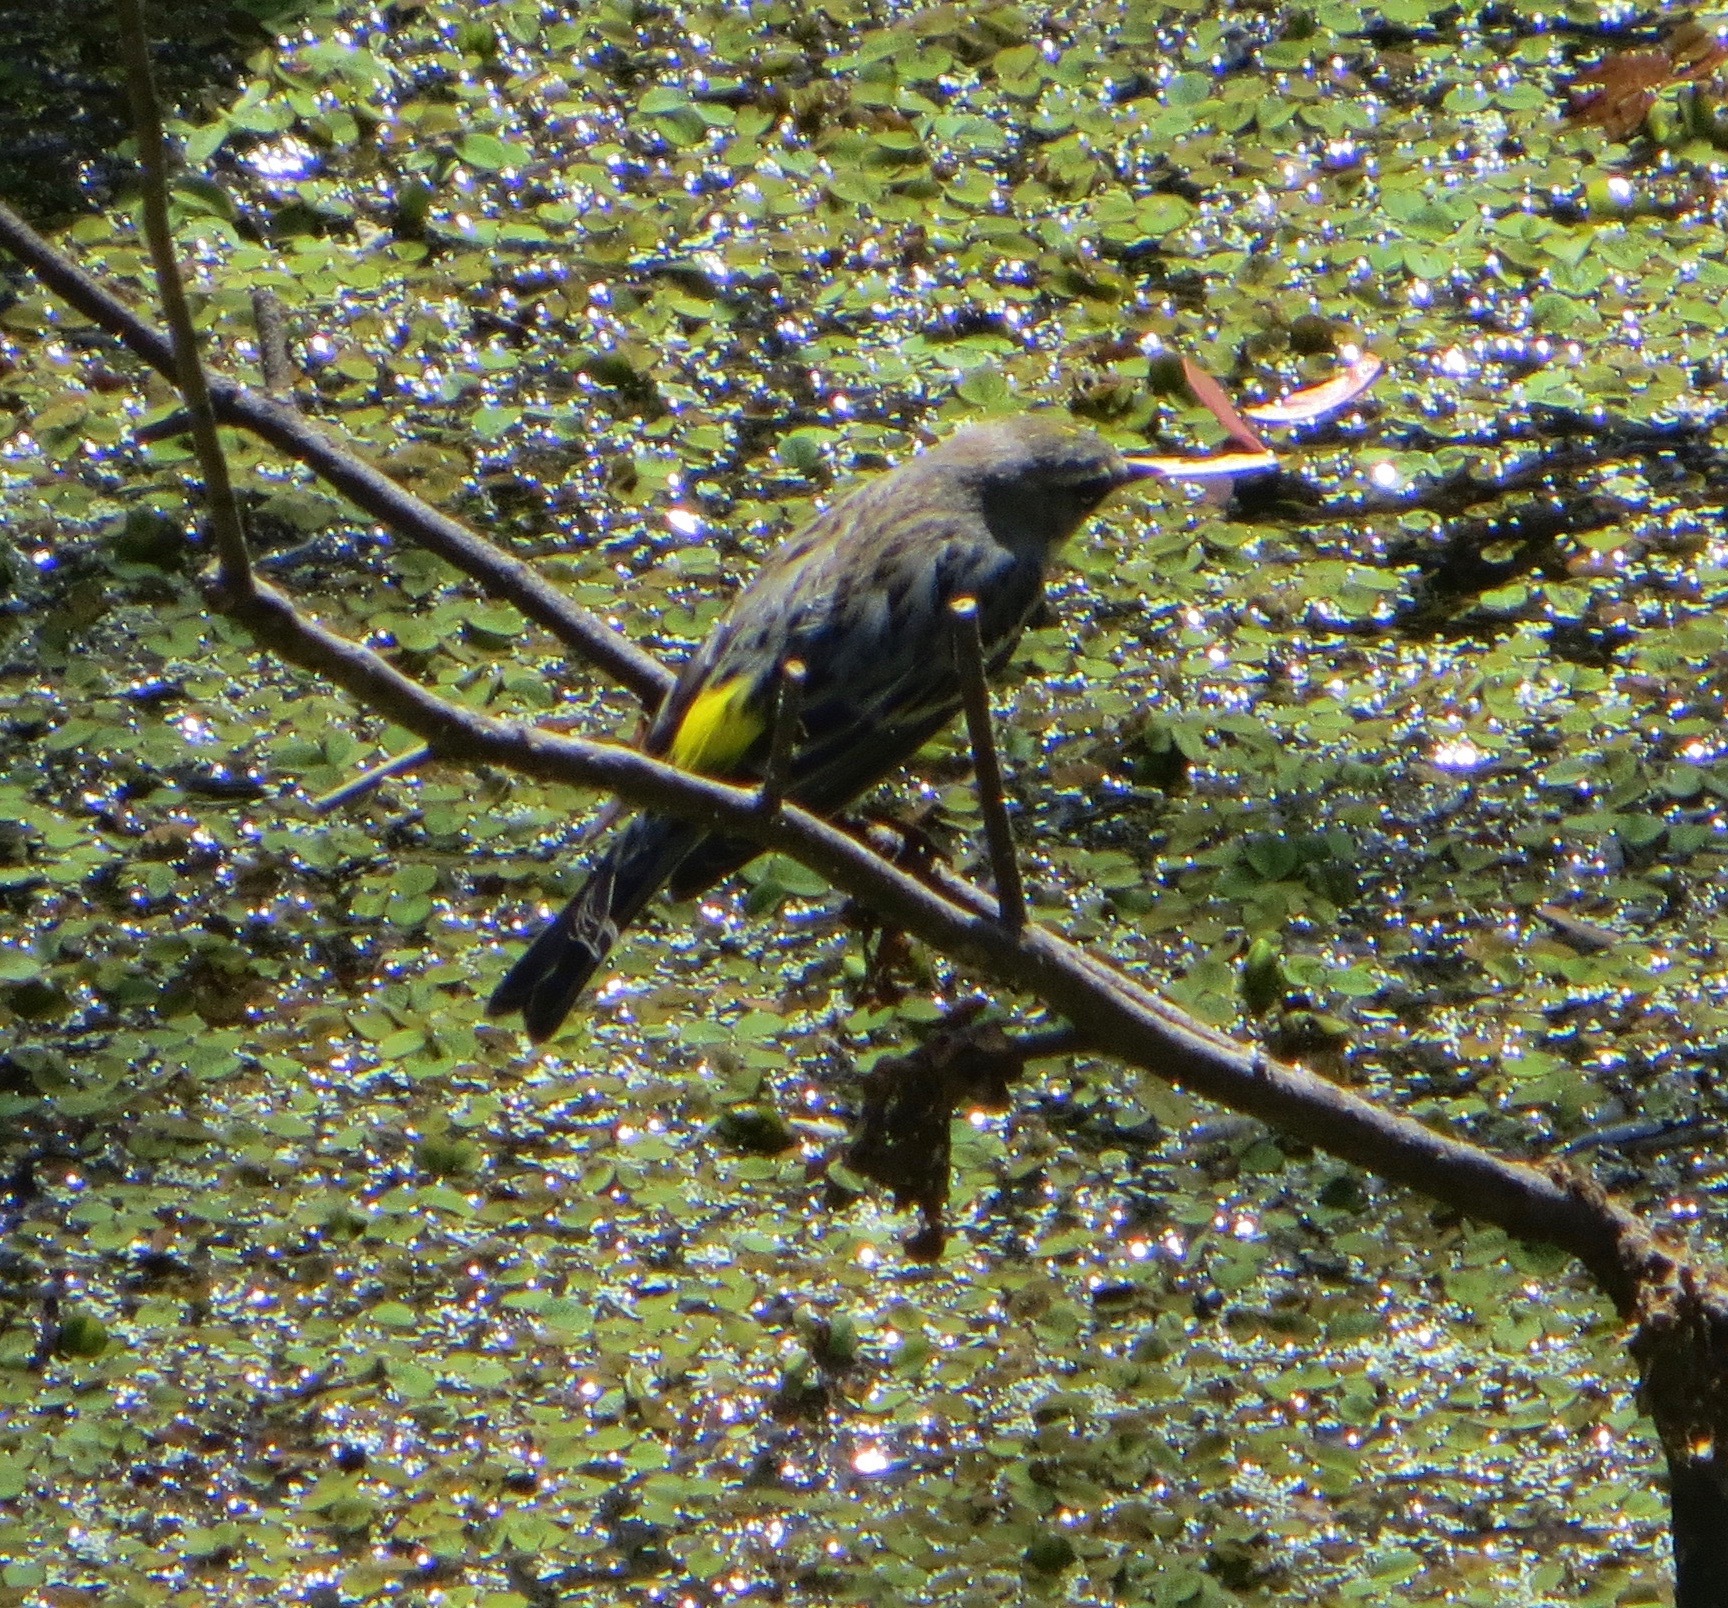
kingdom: Animalia
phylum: Chordata
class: Aves
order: Passeriformes
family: Parulidae
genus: Setophaga
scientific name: Setophaga coronata
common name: Myrtle warbler
